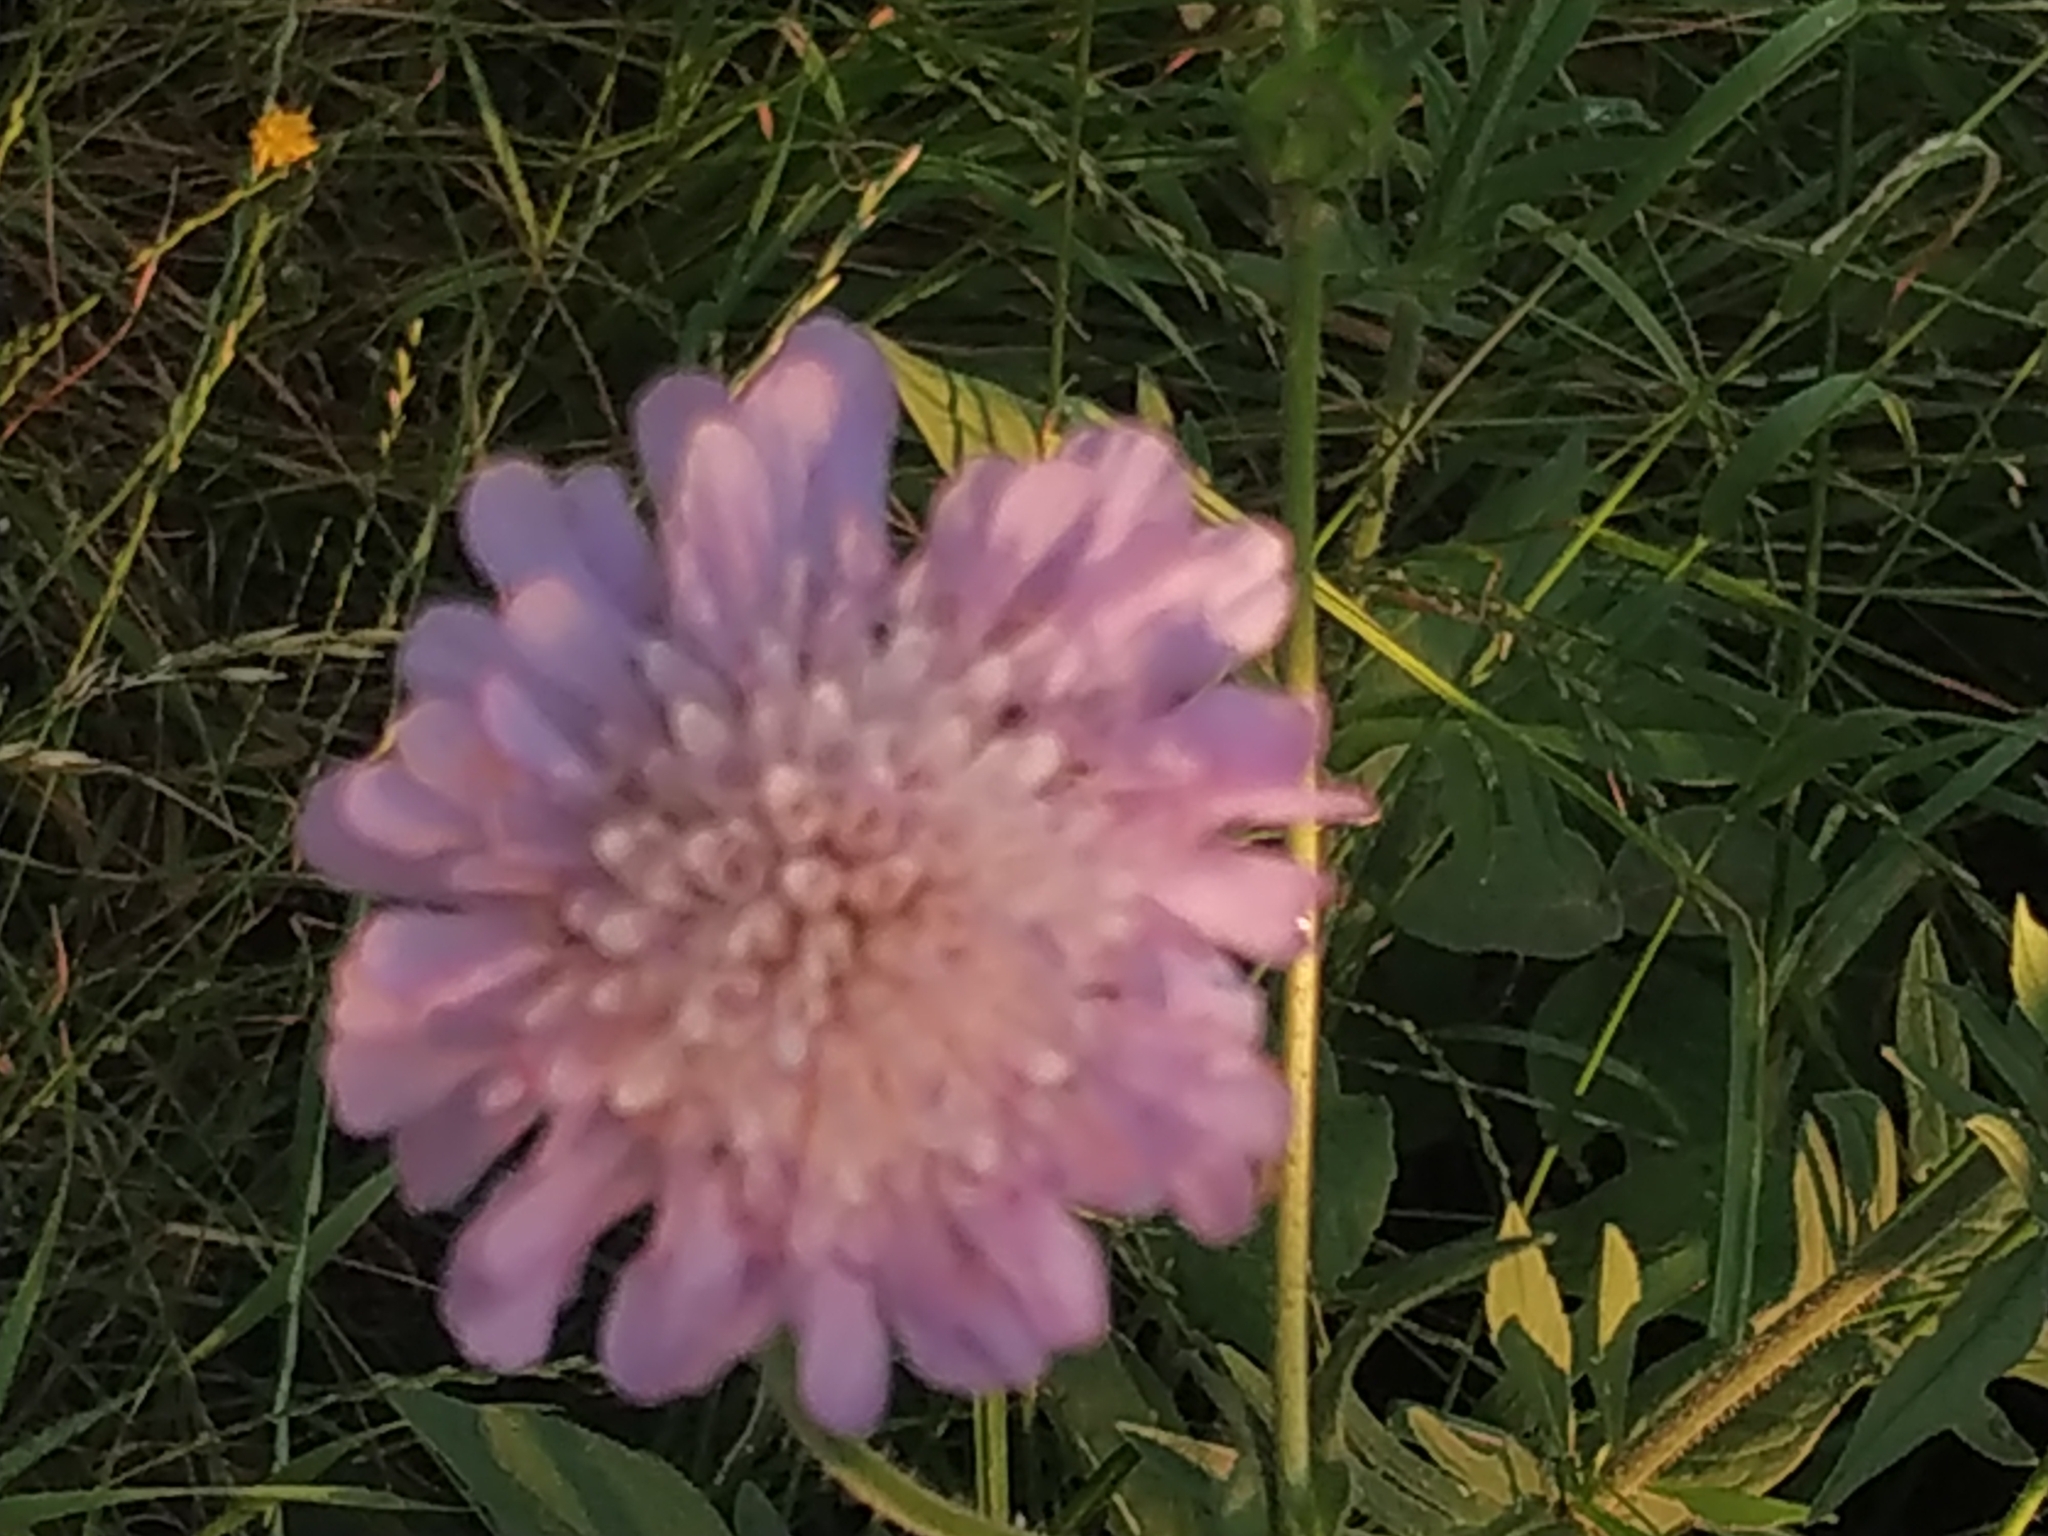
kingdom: Plantae
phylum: Tracheophyta
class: Magnoliopsida
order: Dipsacales
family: Caprifoliaceae
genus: Knautia
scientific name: Knautia arvensis
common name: Field scabiosa
